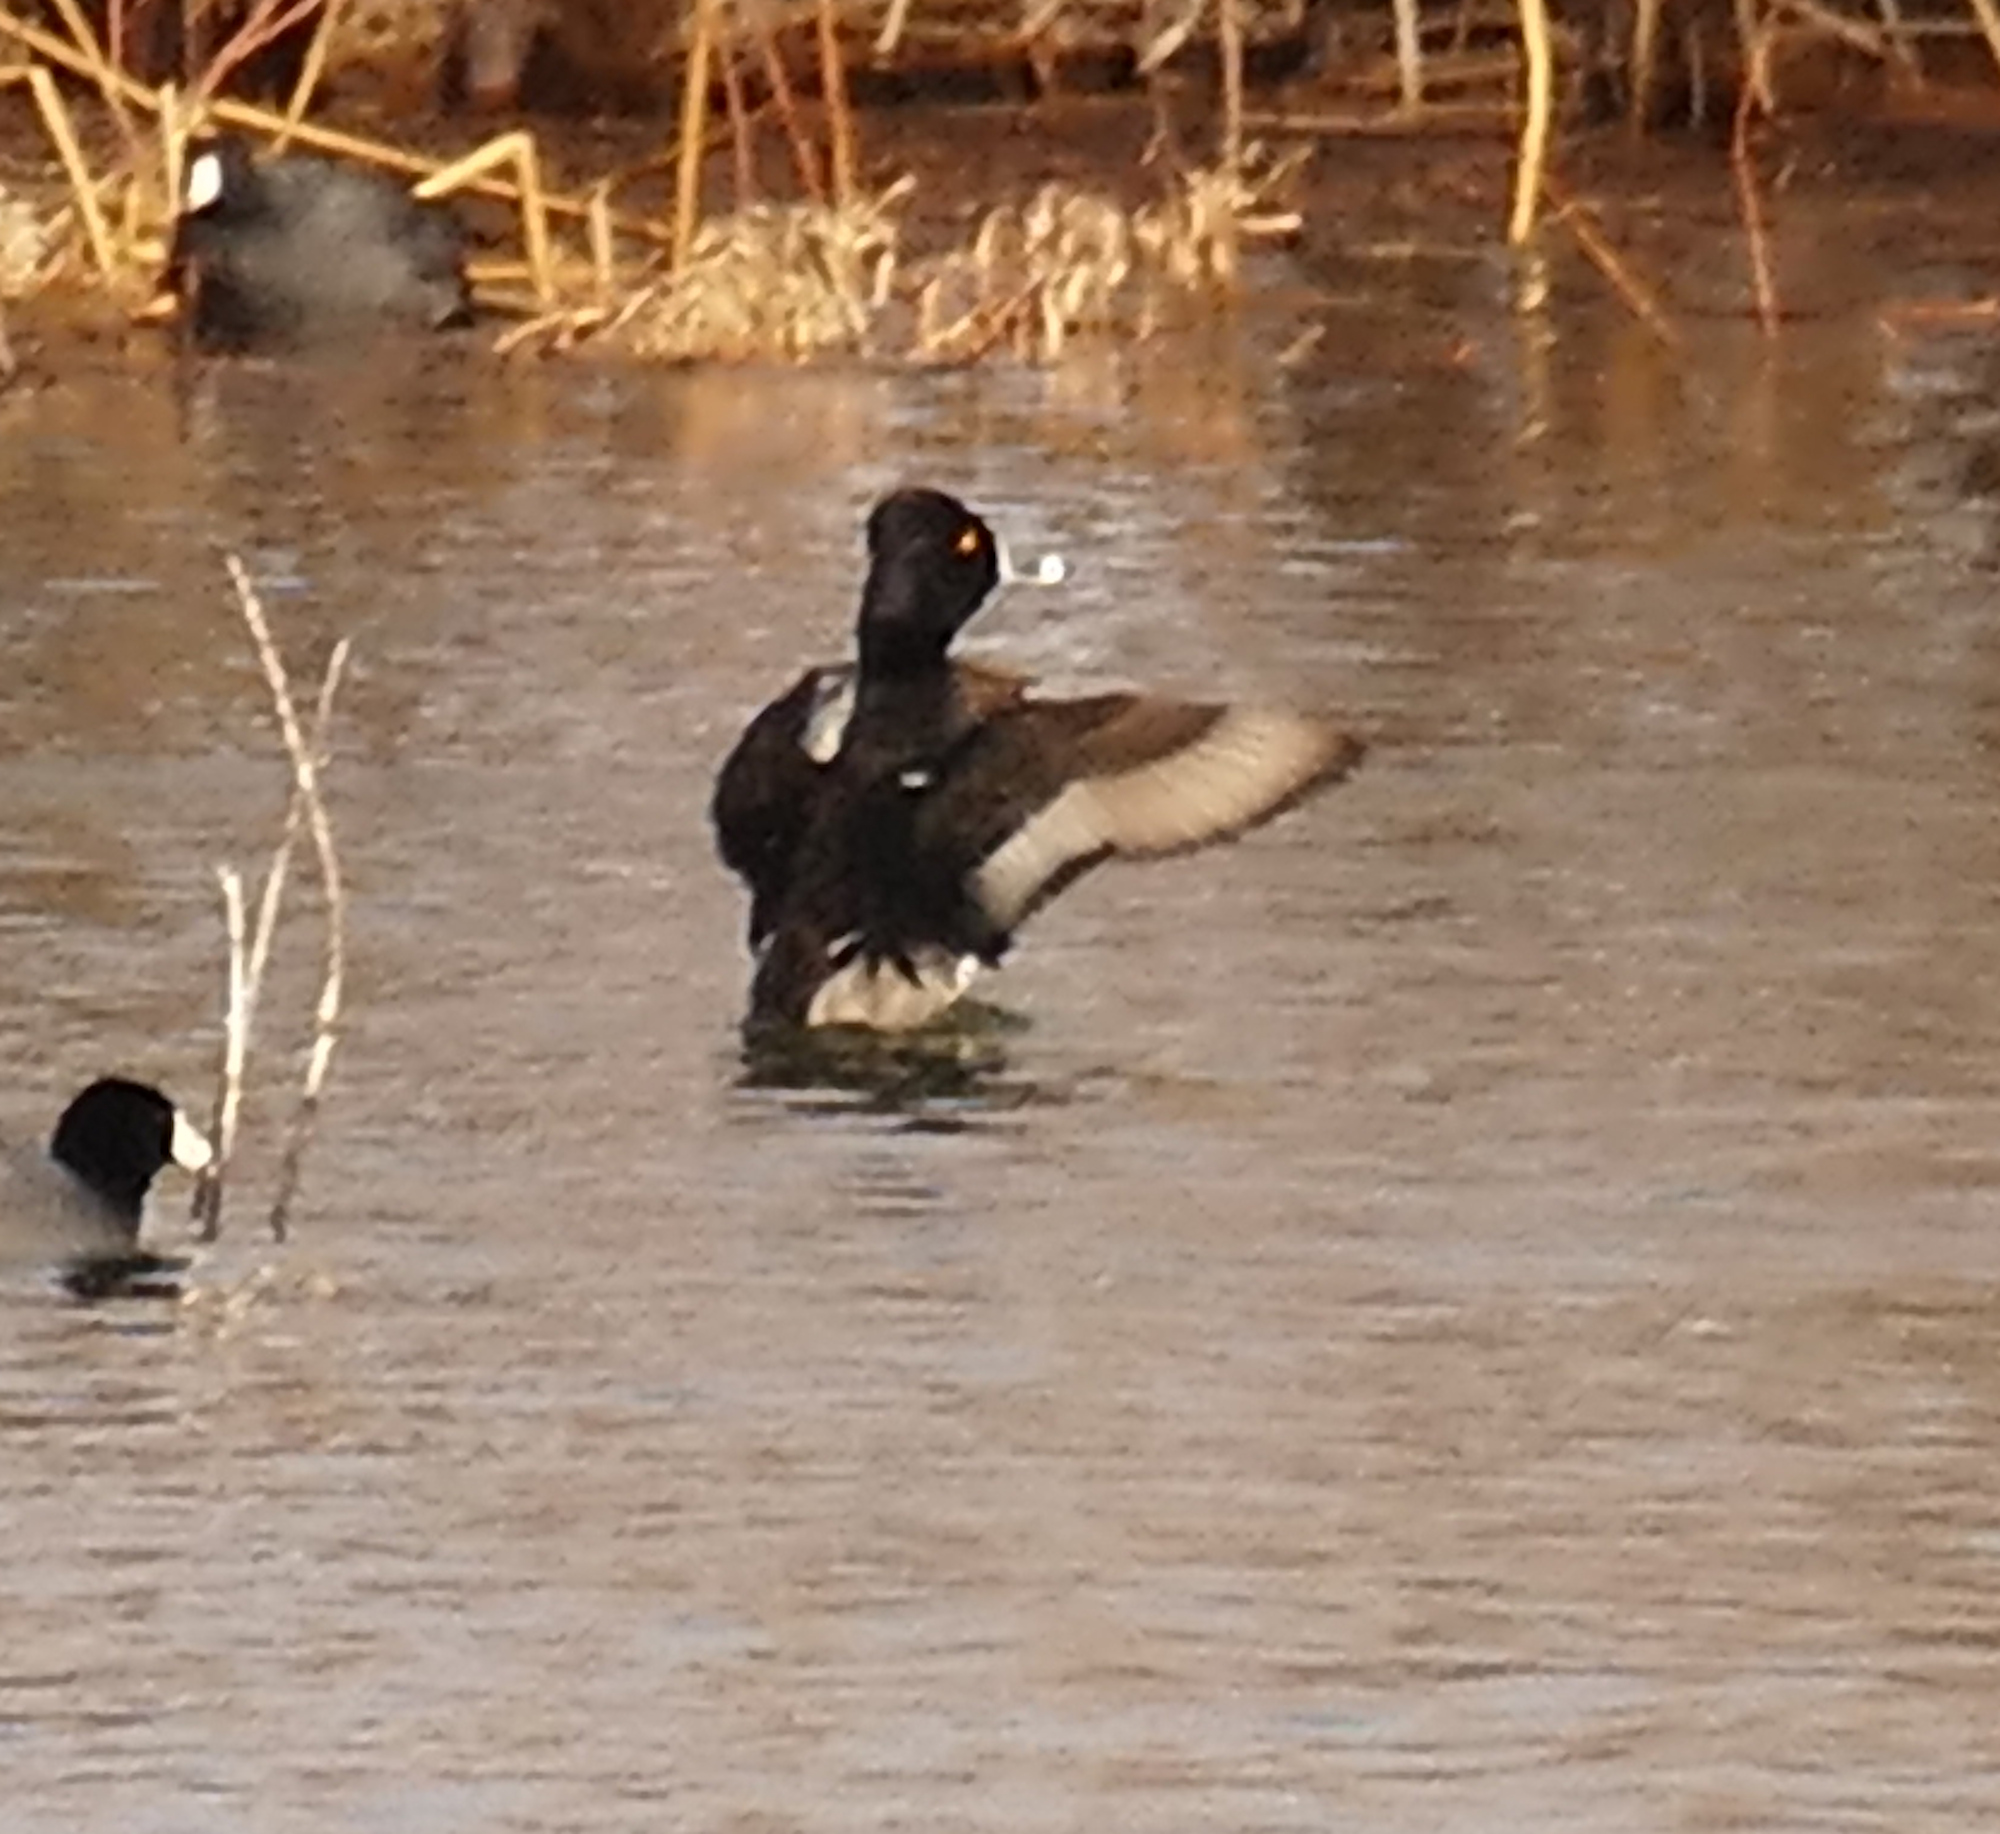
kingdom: Animalia
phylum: Chordata
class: Aves
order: Anseriformes
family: Anatidae
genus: Aythya
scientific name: Aythya collaris
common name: Ring-necked duck
